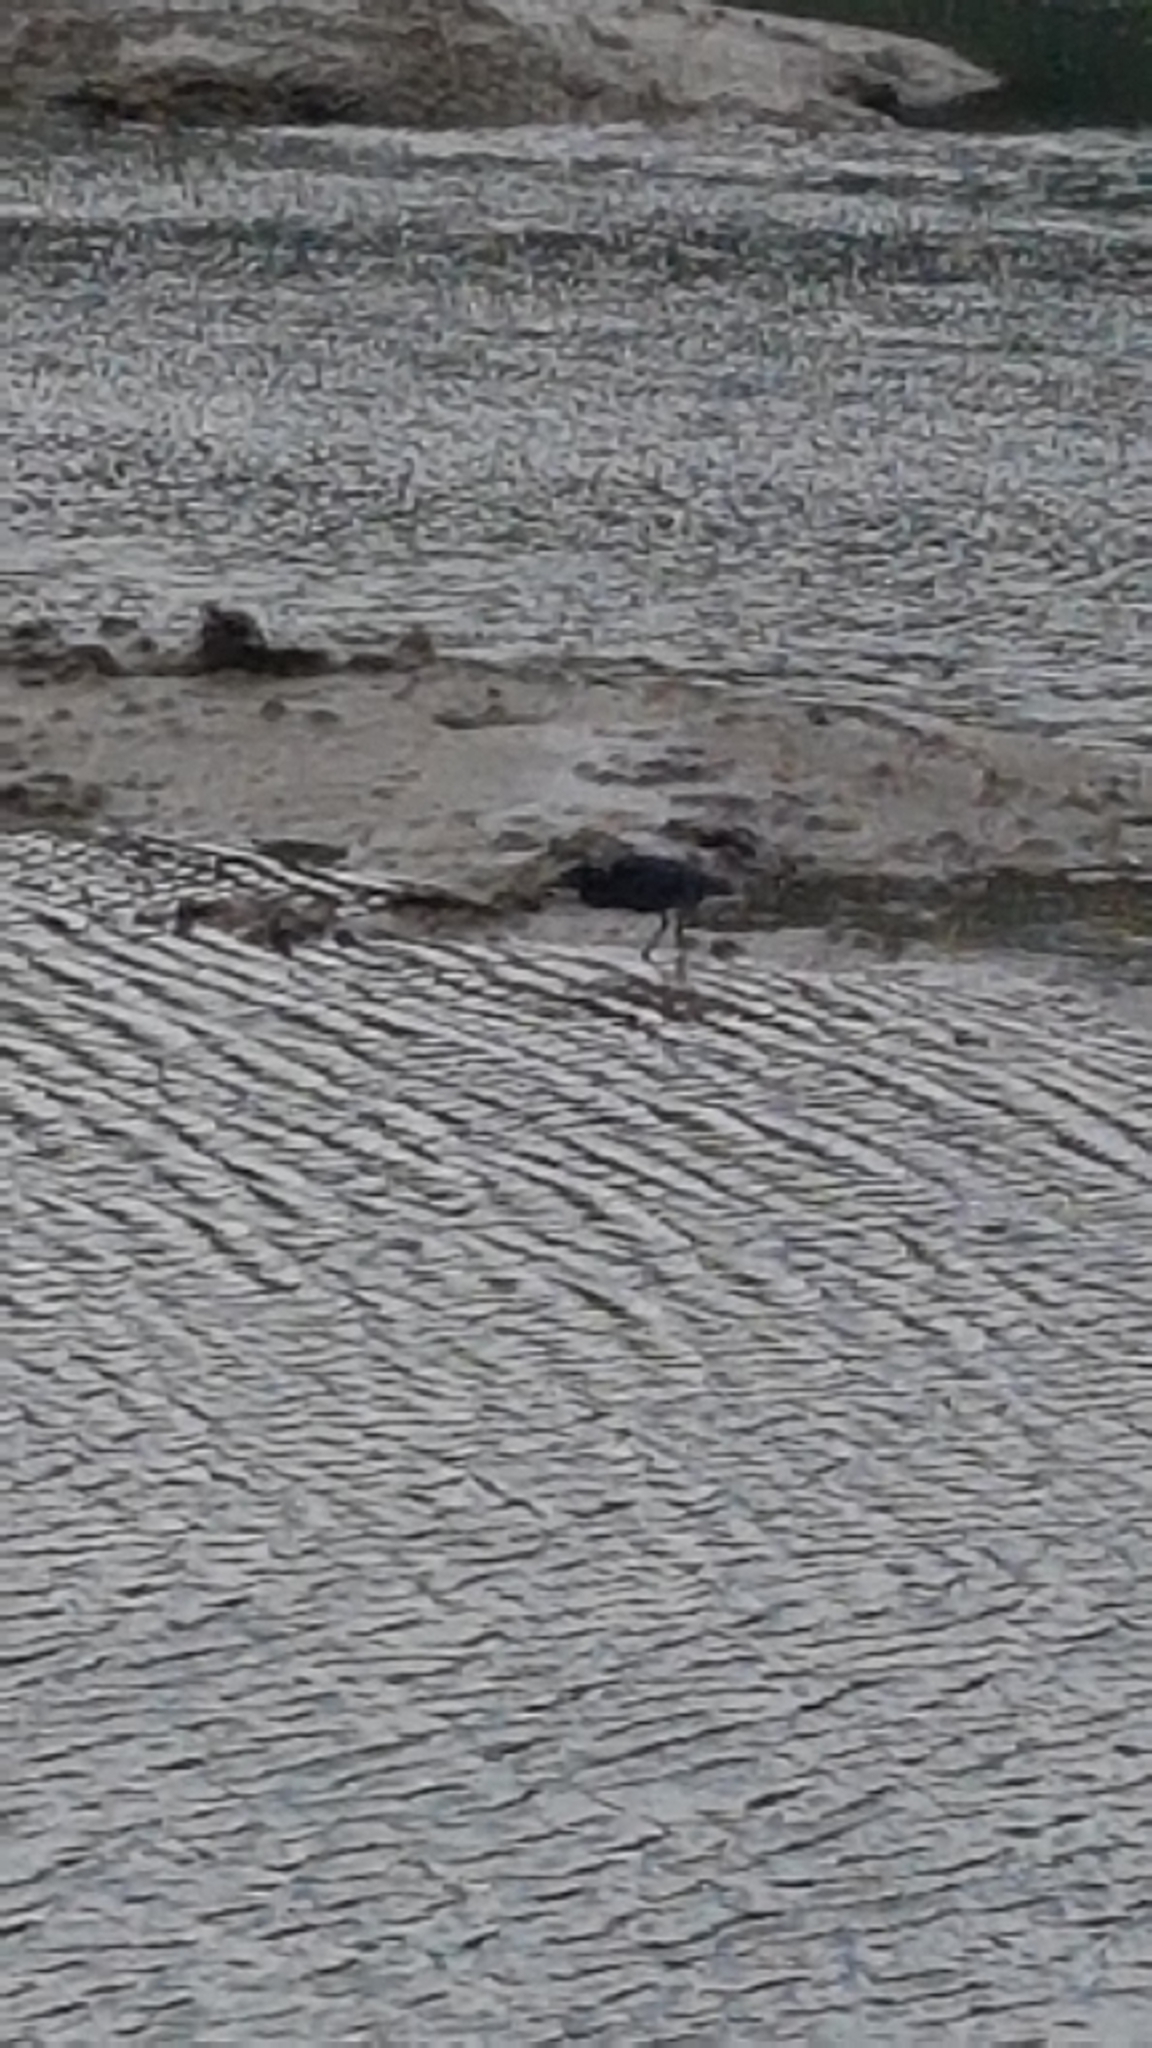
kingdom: Animalia
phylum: Chordata
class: Aves
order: Pelecaniformes
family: Ardeidae
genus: Egretta
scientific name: Egretta sacra
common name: Pacific reef heron
